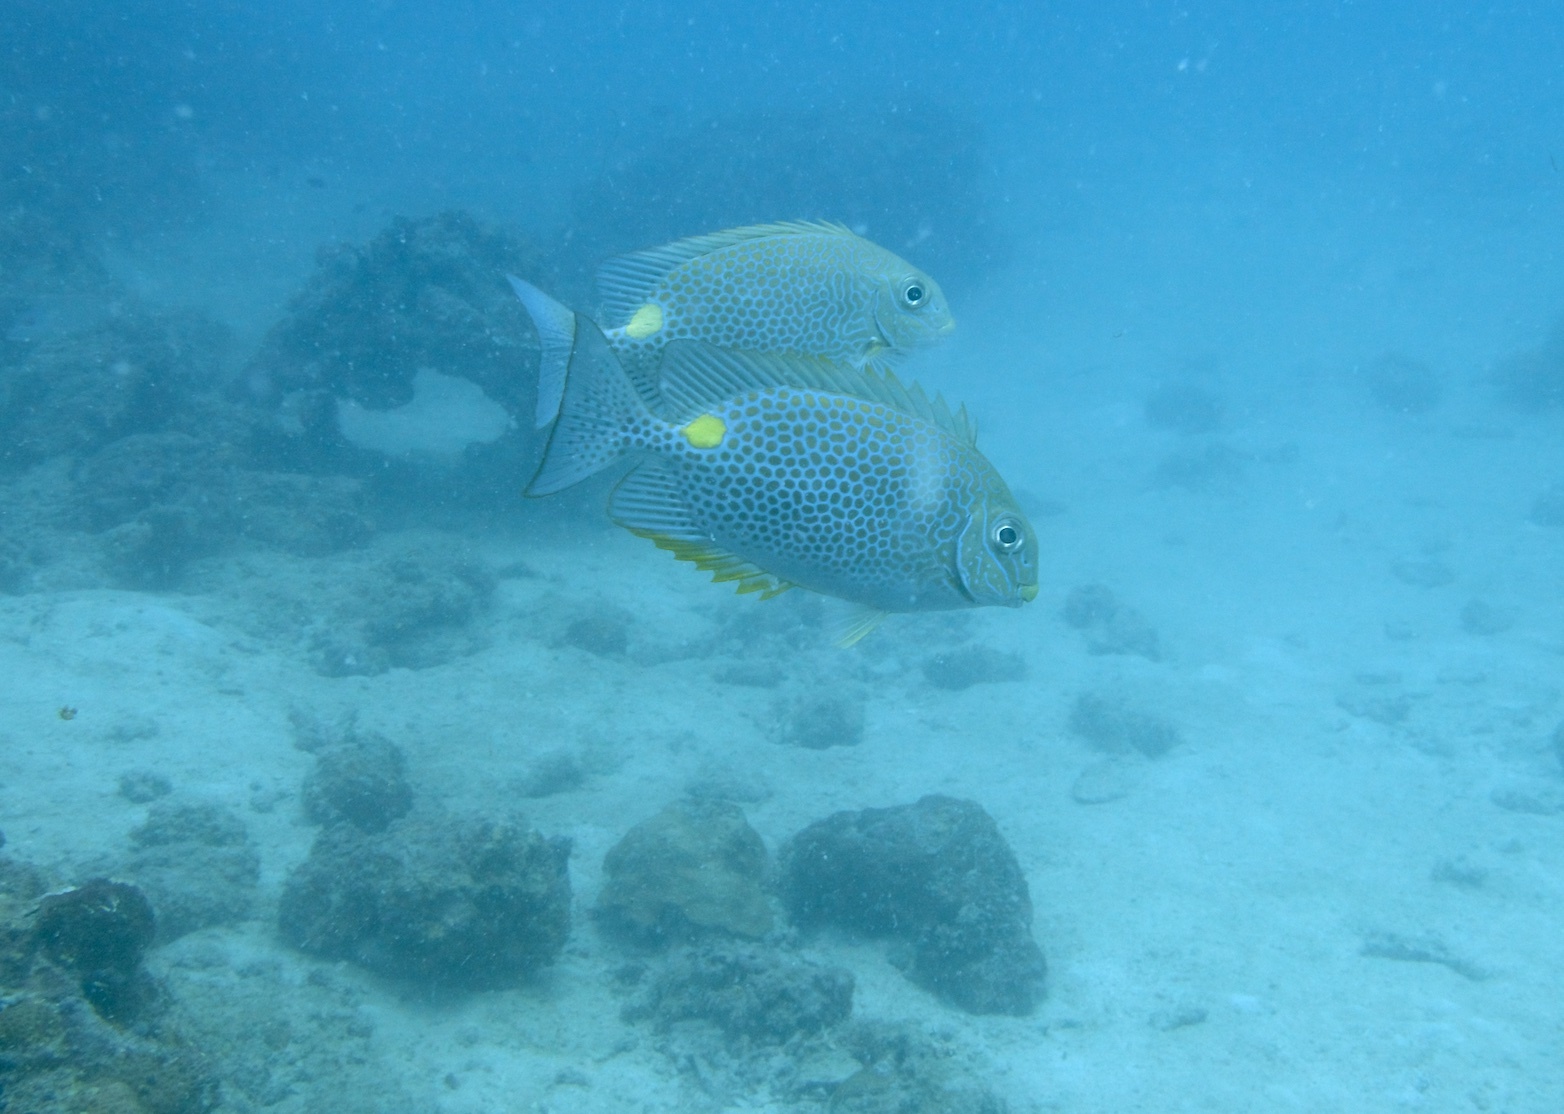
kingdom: Animalia
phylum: Chordata
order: Perciformes
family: Siganidae
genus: Siganus
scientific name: Siganus guttatus
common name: Golden rabbitfish
